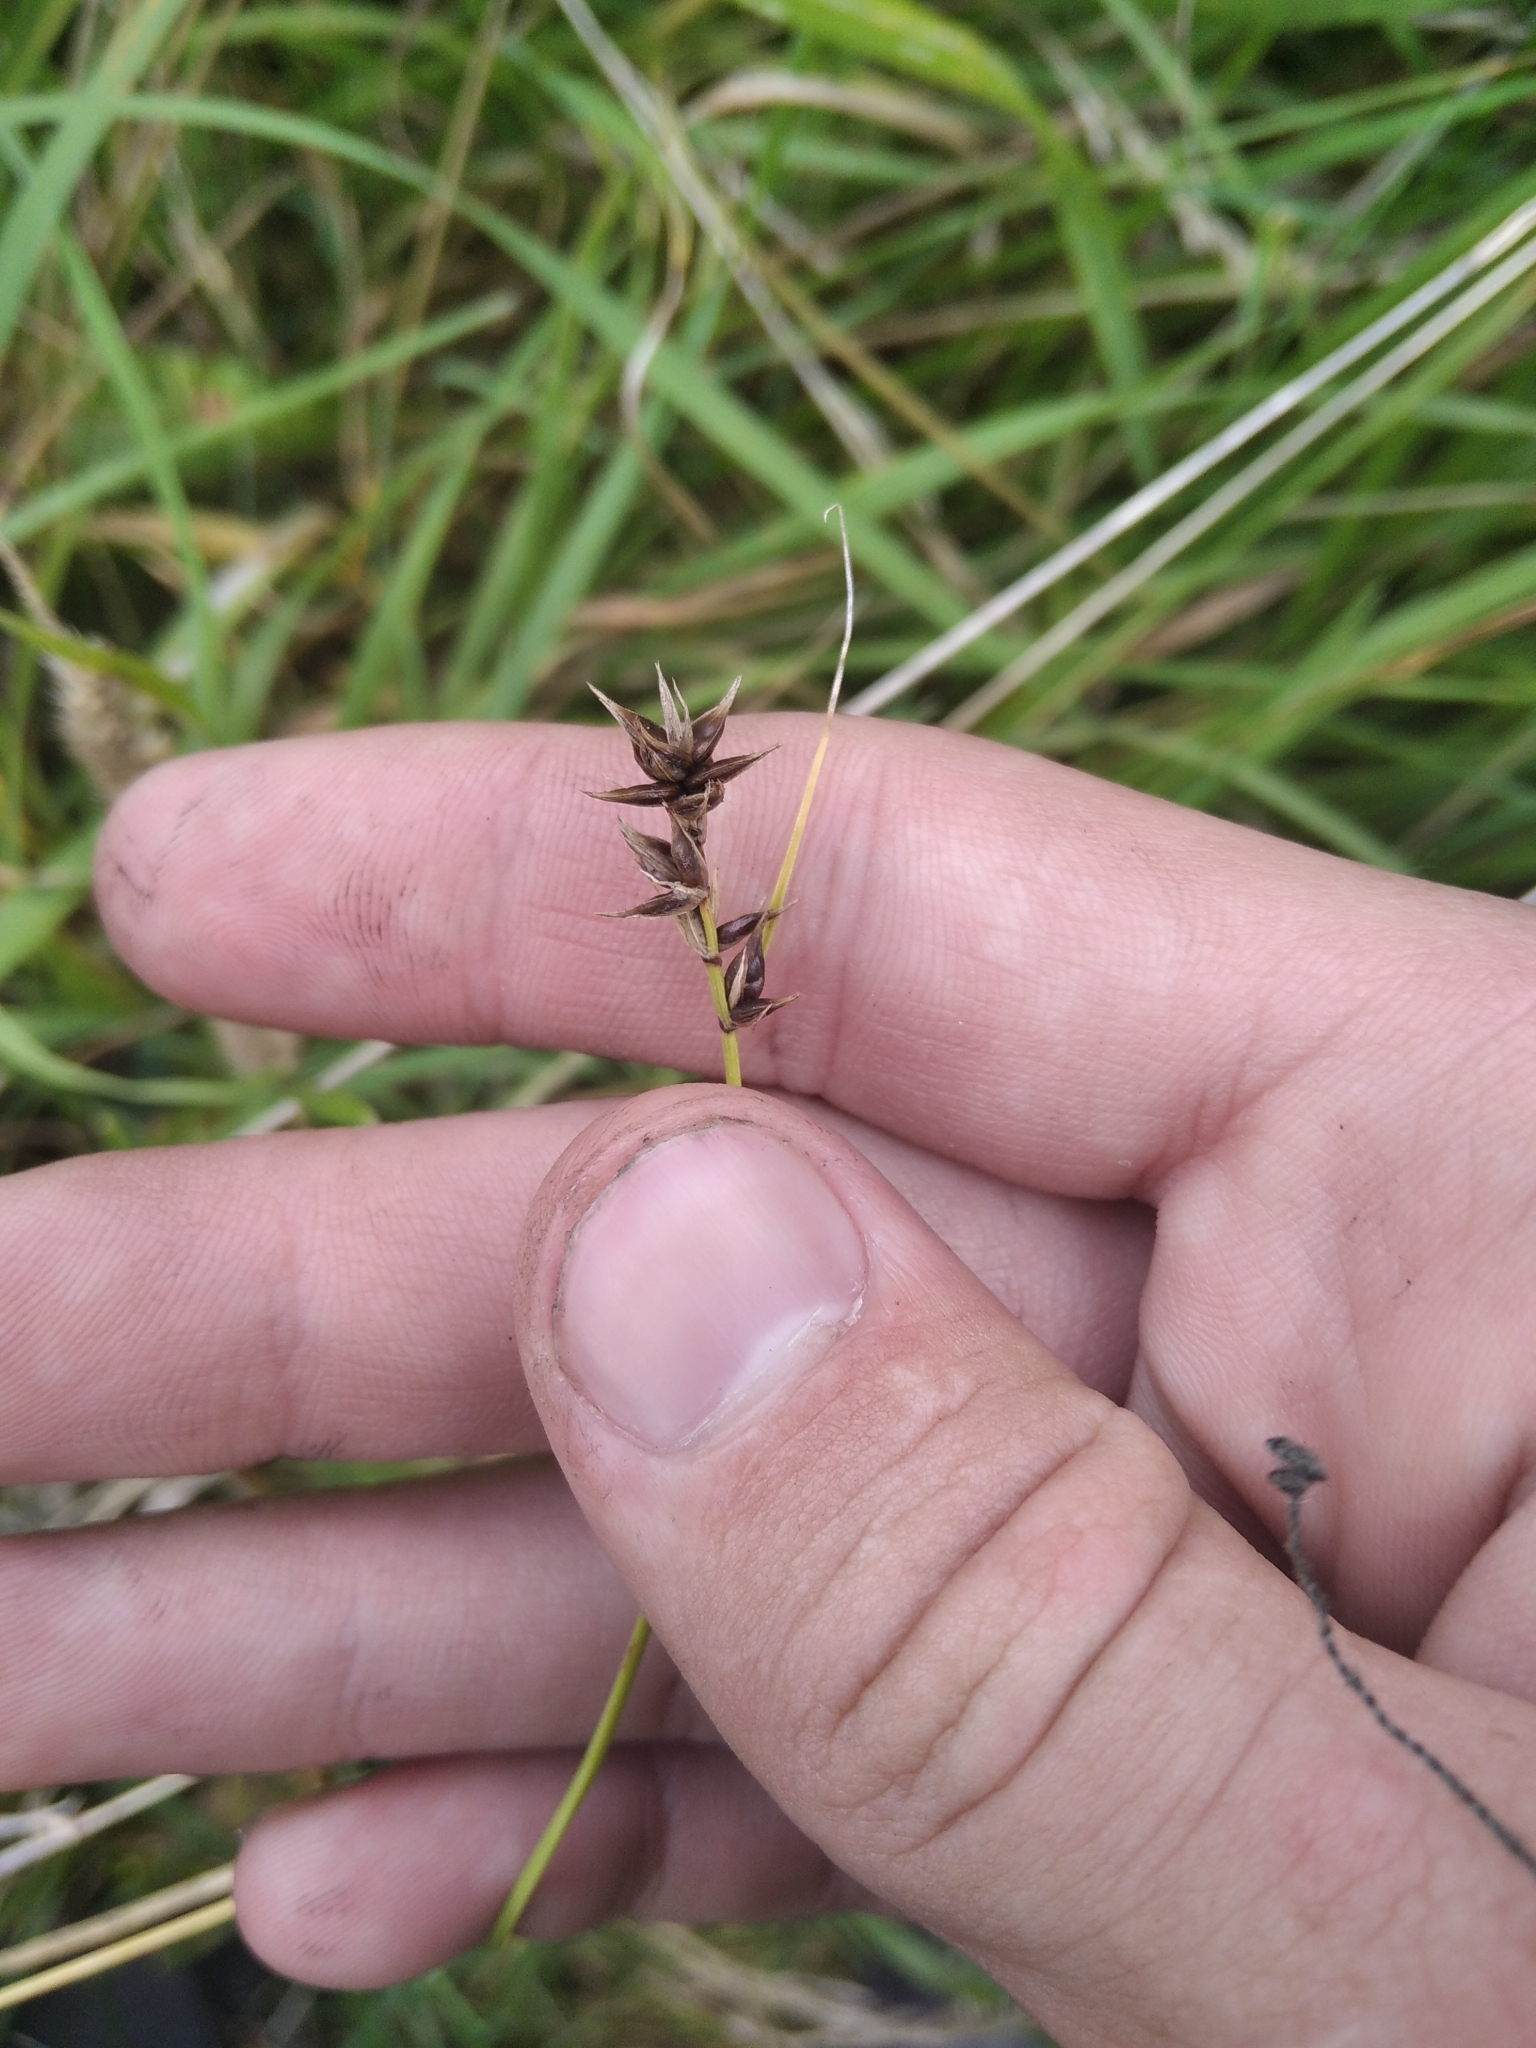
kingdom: Plantae
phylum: Tracheophyta
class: Liliopsida
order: Poales
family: Cyperaceae
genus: Carex
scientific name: Carex spicata
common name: Spiked sedge
